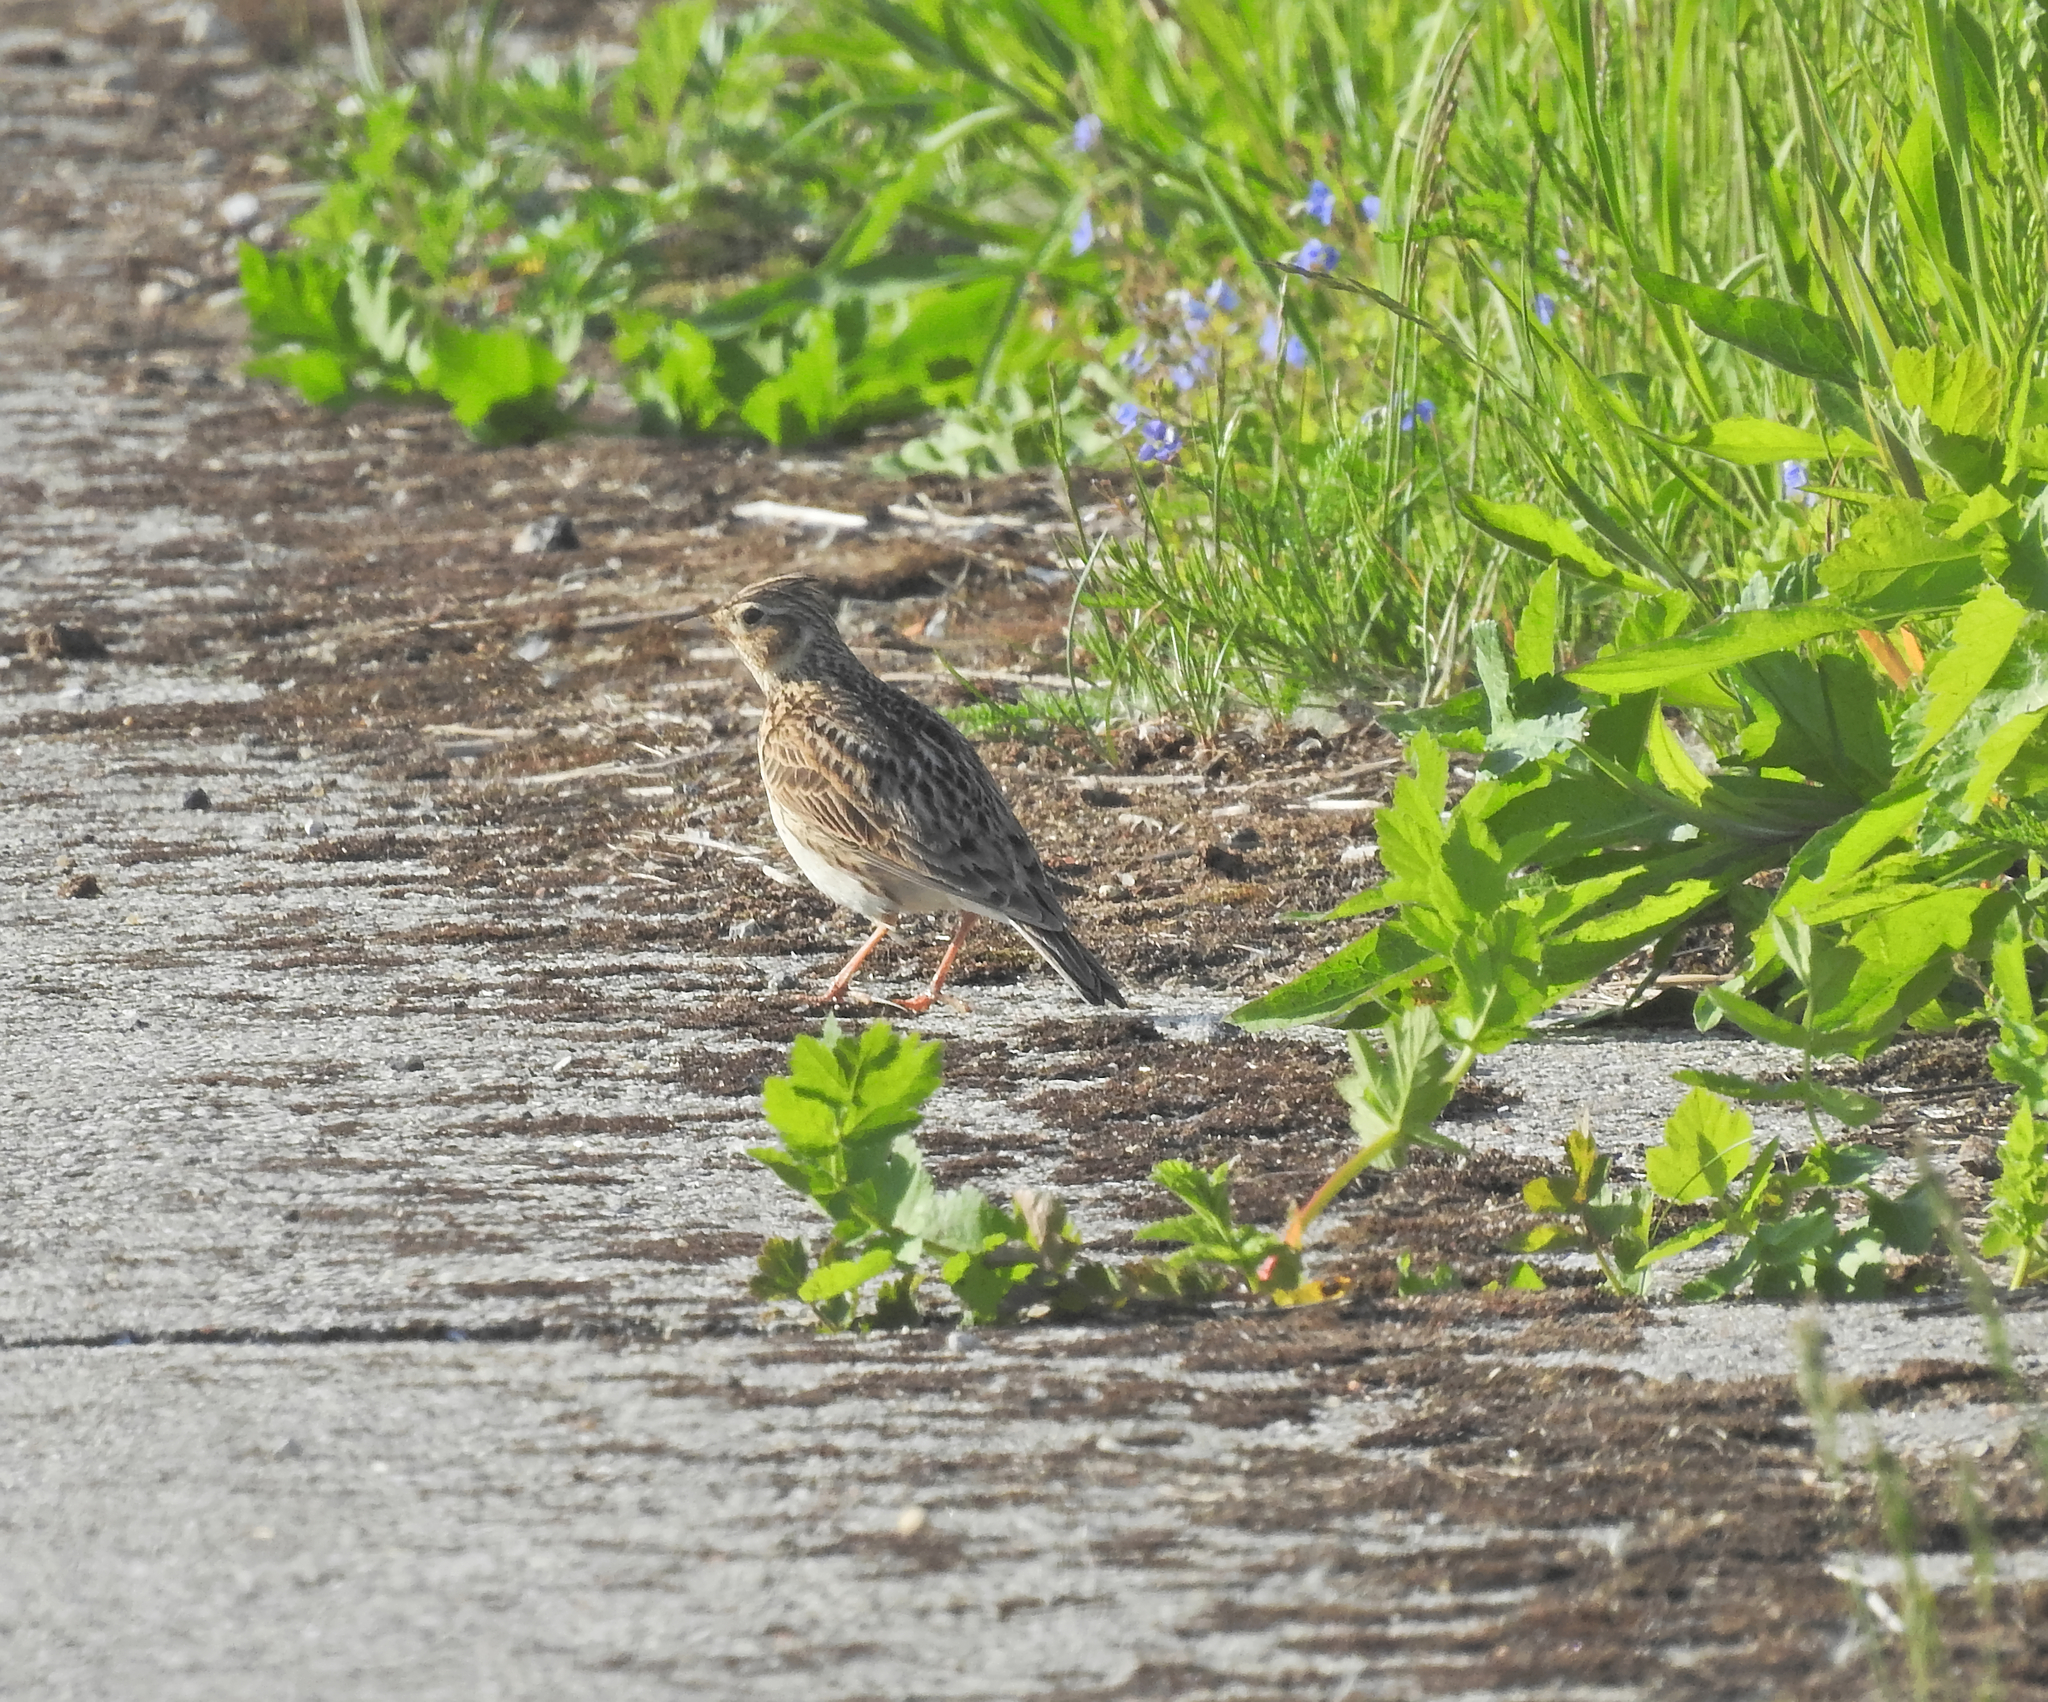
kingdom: Animalia
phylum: Chordata
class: Aves
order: Passeriformes
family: Alaudidae
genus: Alauda
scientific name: Alauda arvensis
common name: Eurasian skylark
